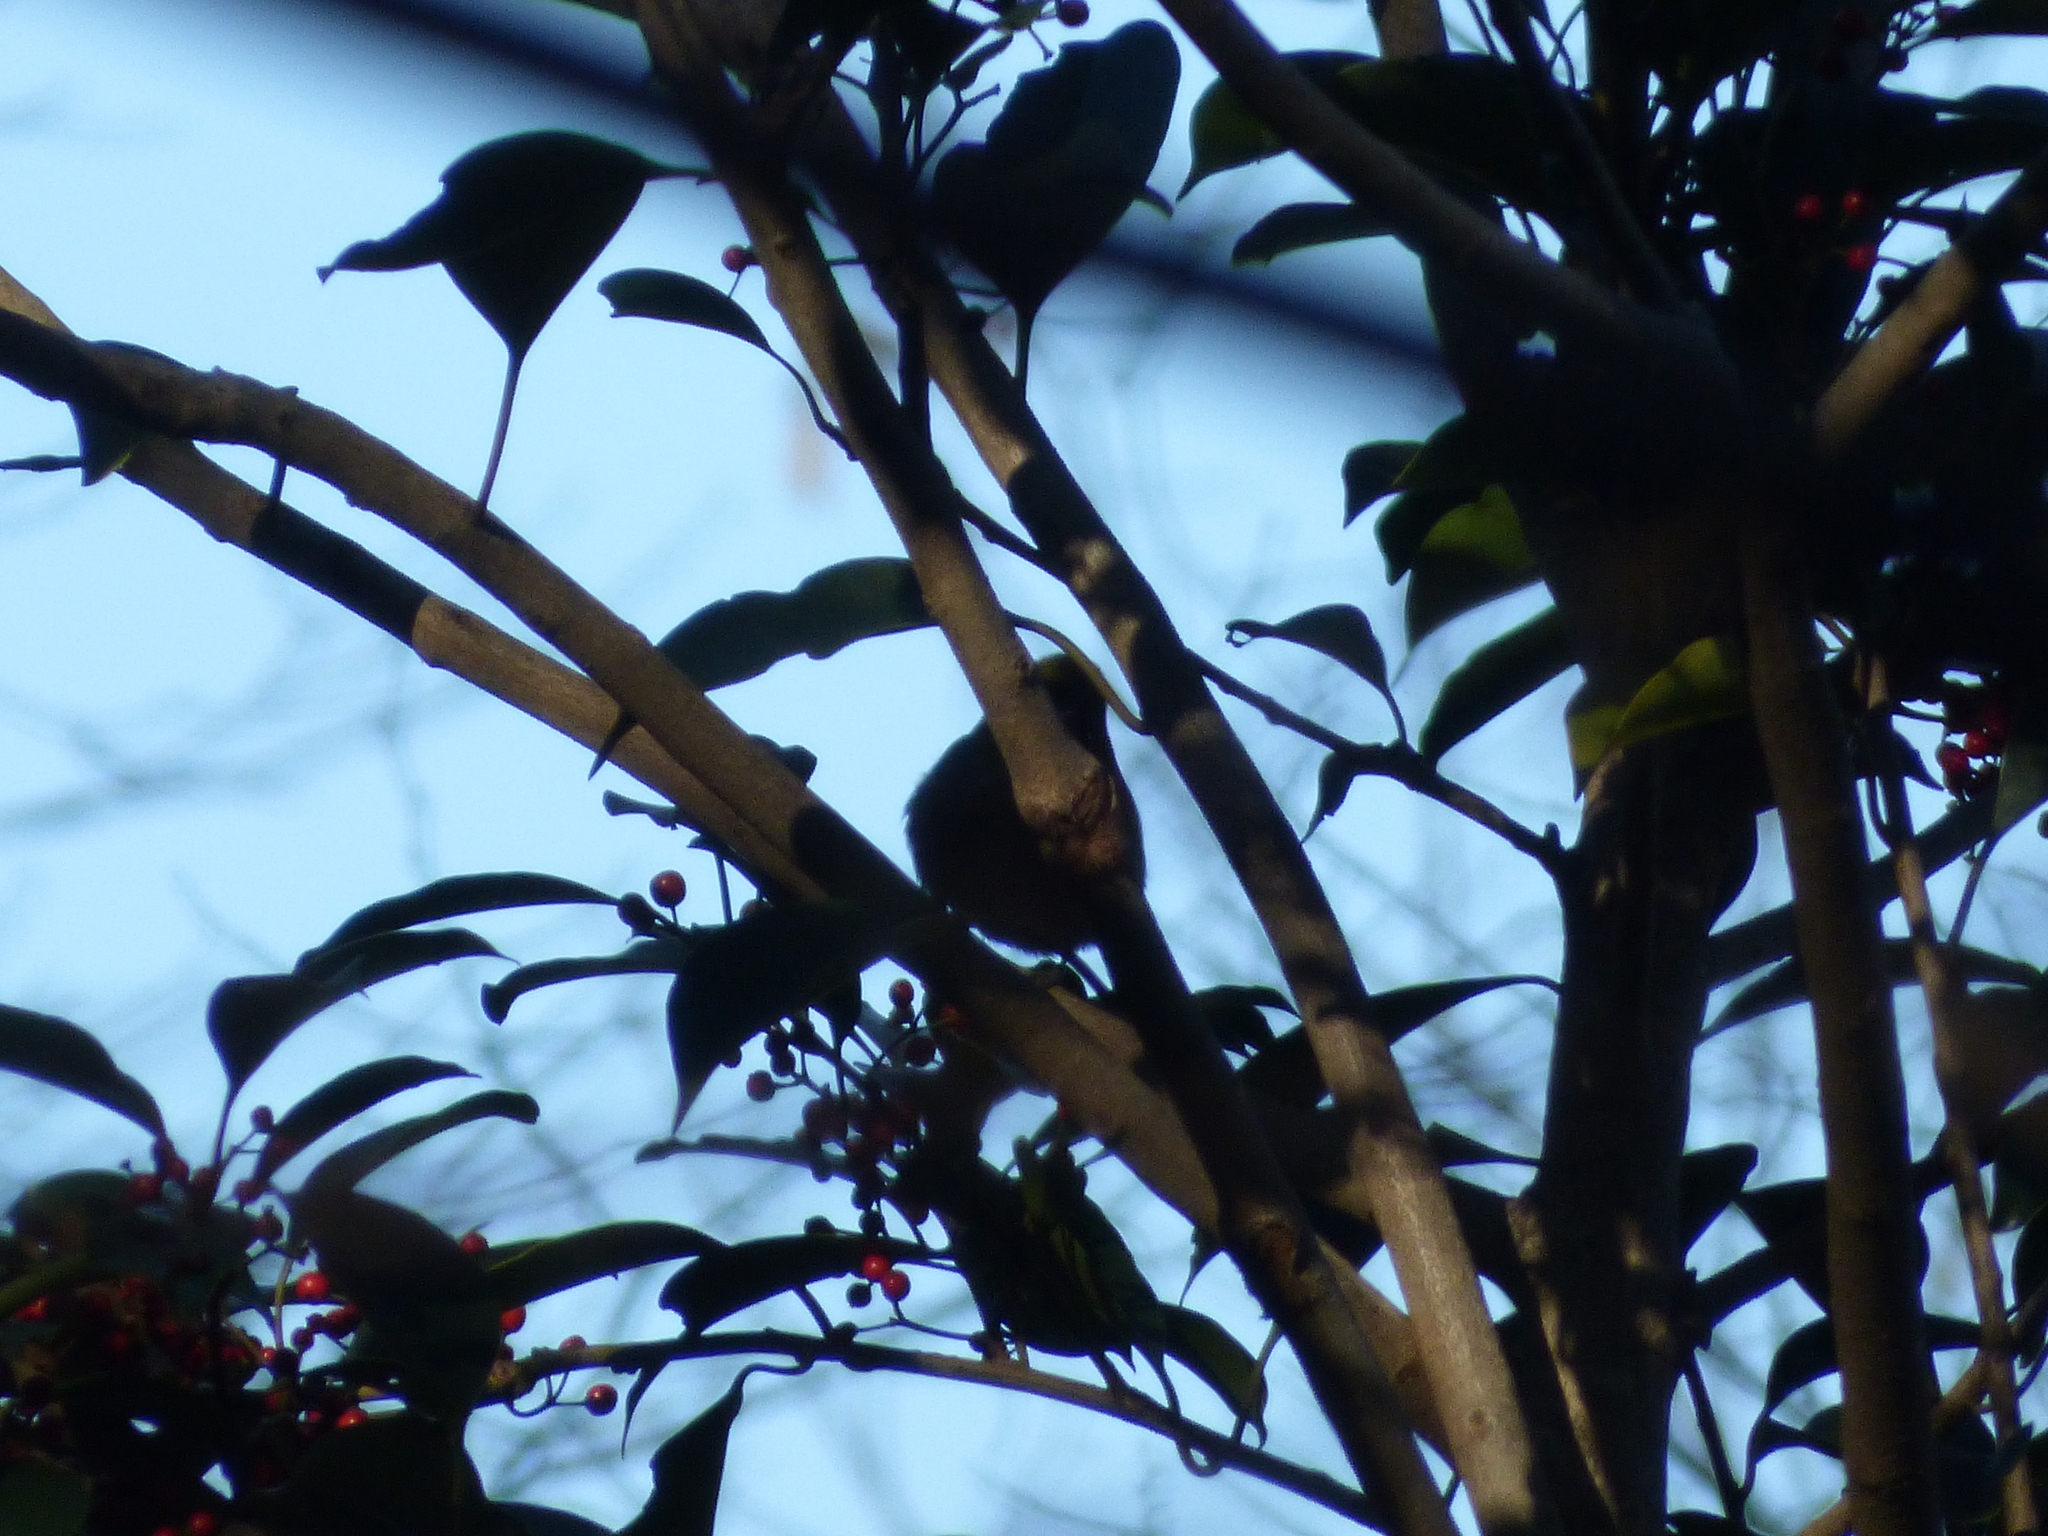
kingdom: Animalia
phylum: Chordata
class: Aves
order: Passeriformes
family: Zosteropidae
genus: Zosterops
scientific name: Zosterops japonicus
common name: Japanese white-eye
